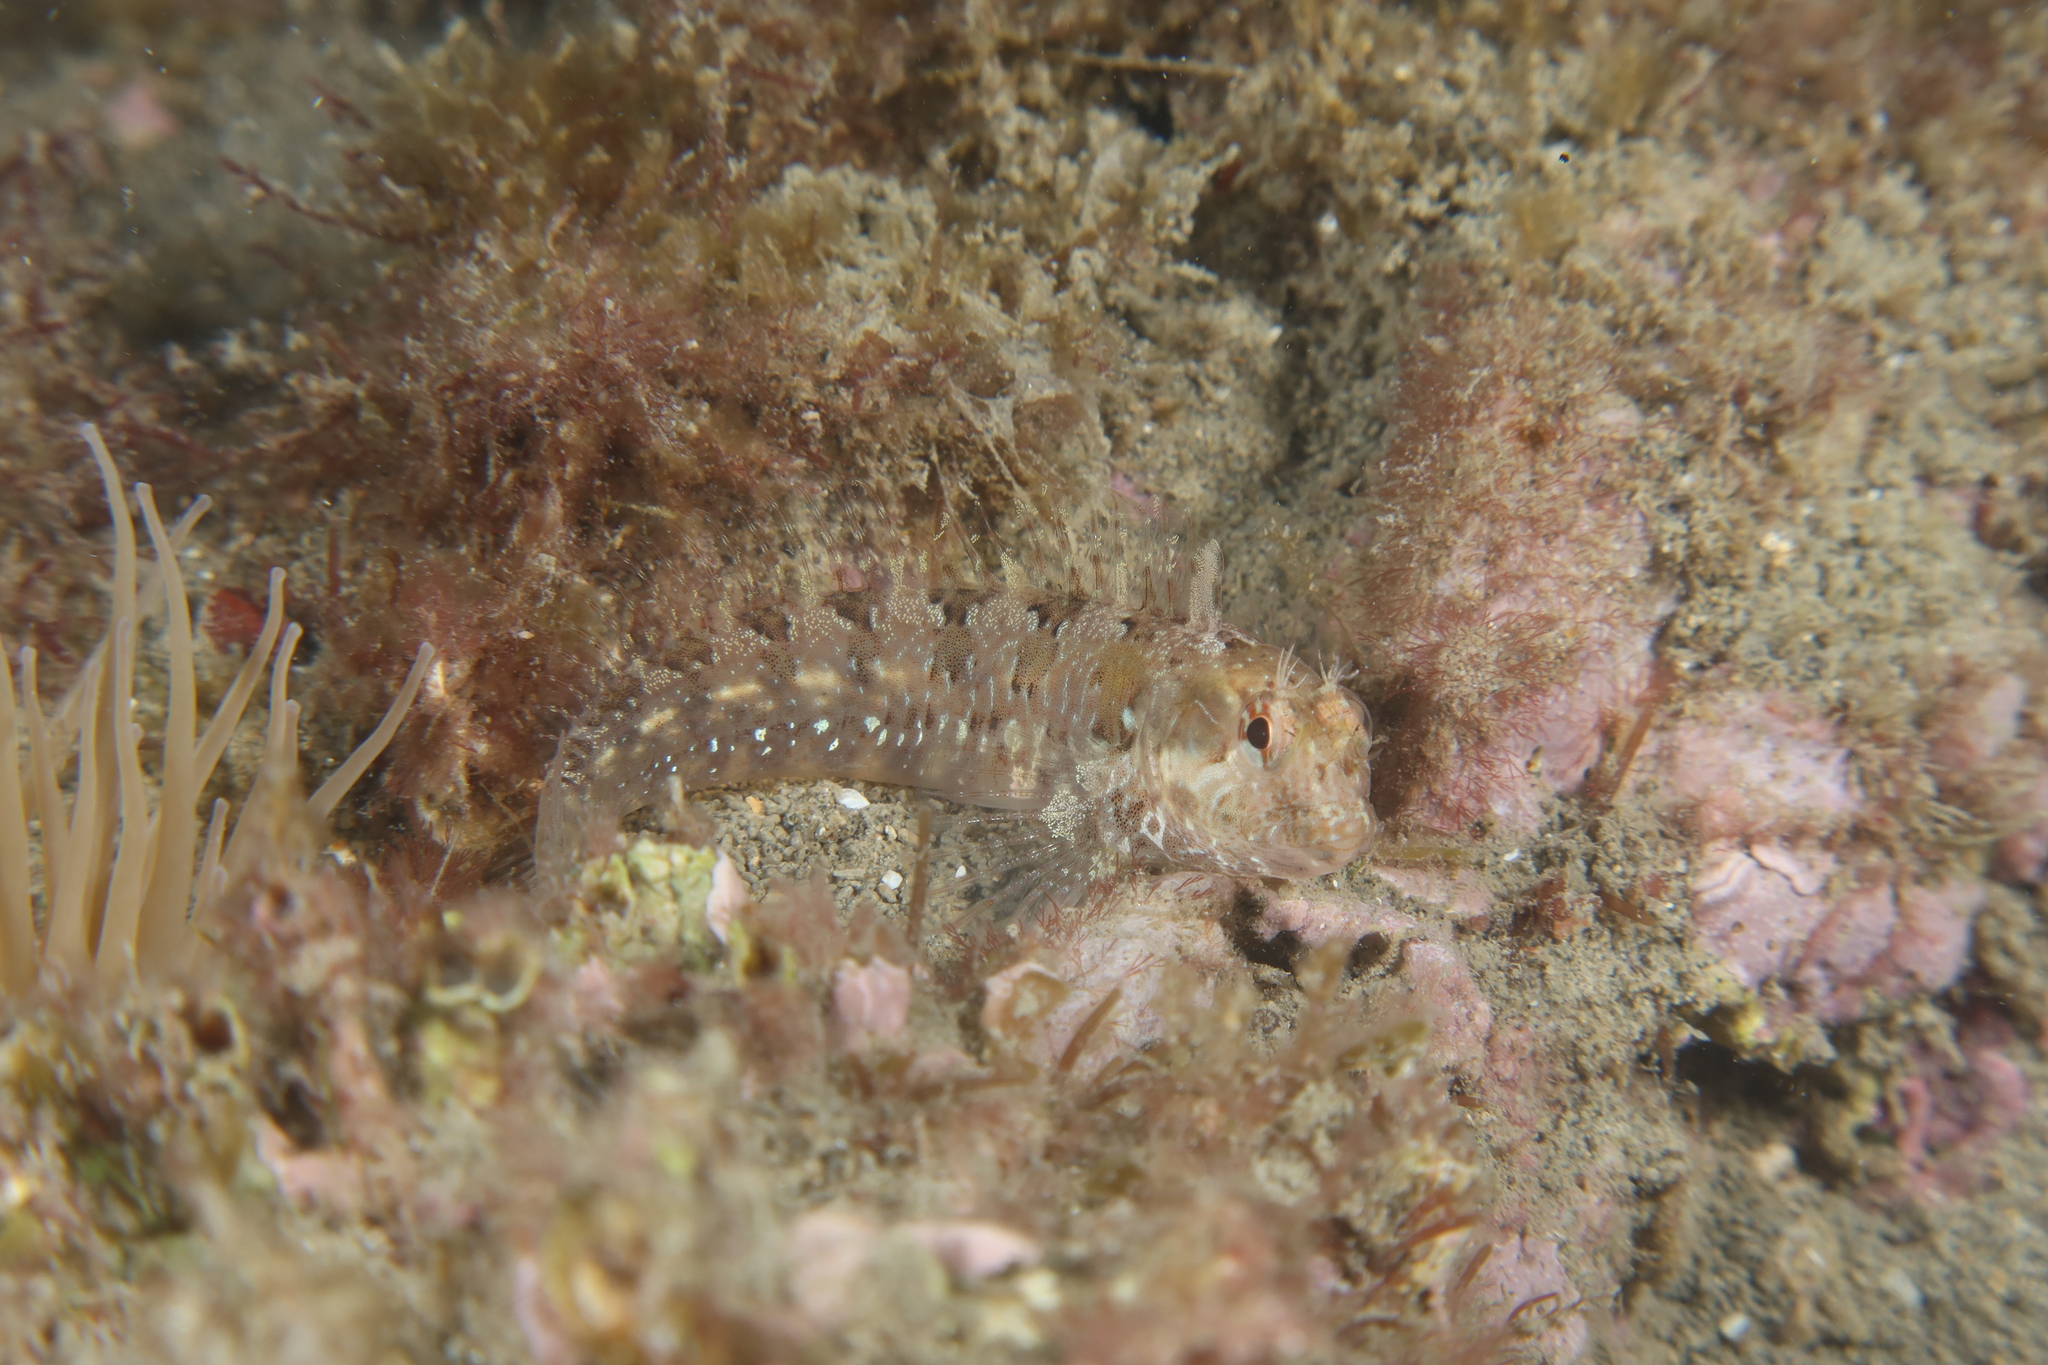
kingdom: Animalia
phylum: Chordata
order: Perciformes
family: Blenniidae
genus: Parablennius
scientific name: Parablennius incognitus
